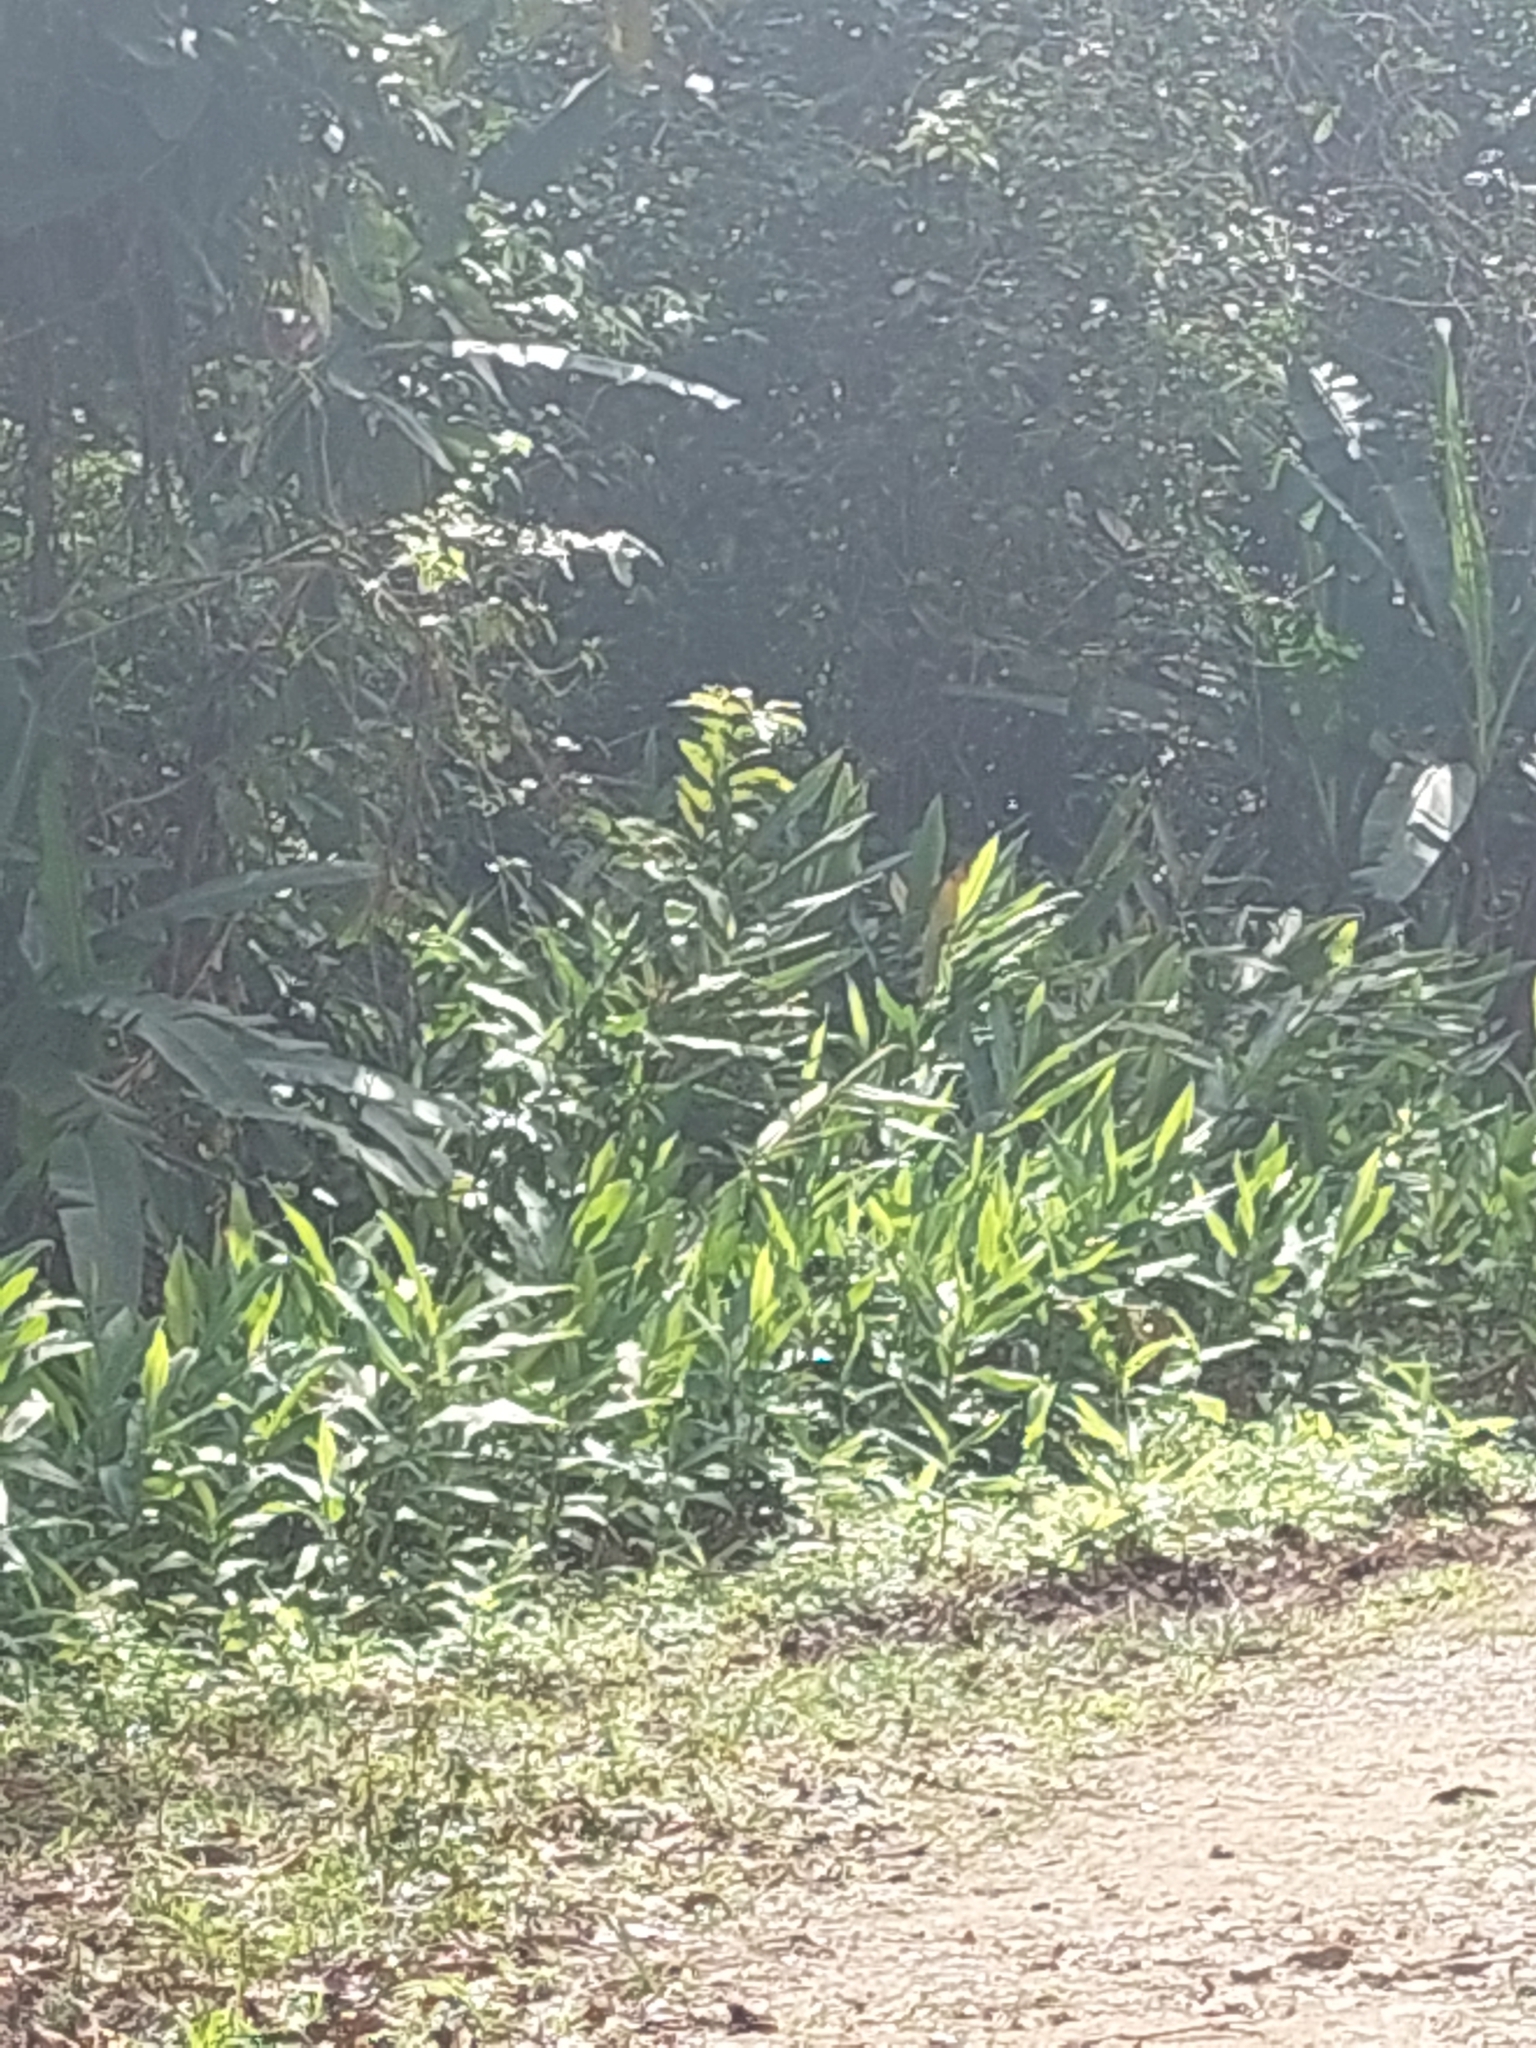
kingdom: Plantae
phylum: Tracheophyta
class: Liliopsida
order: Zingiberales
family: Zingiberaceae
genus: Hedychium
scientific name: Hedychium coronarium
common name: White garland-lily
